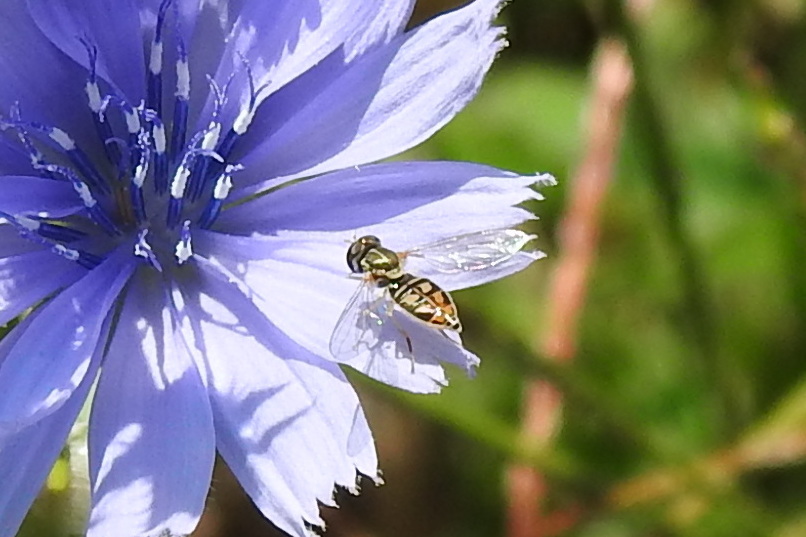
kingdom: Animalia
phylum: Arthropoda
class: Insecta
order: Diptera
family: Syrphidae
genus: Toxomerus
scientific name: Toxomerus marginatus
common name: Syrphid fly
